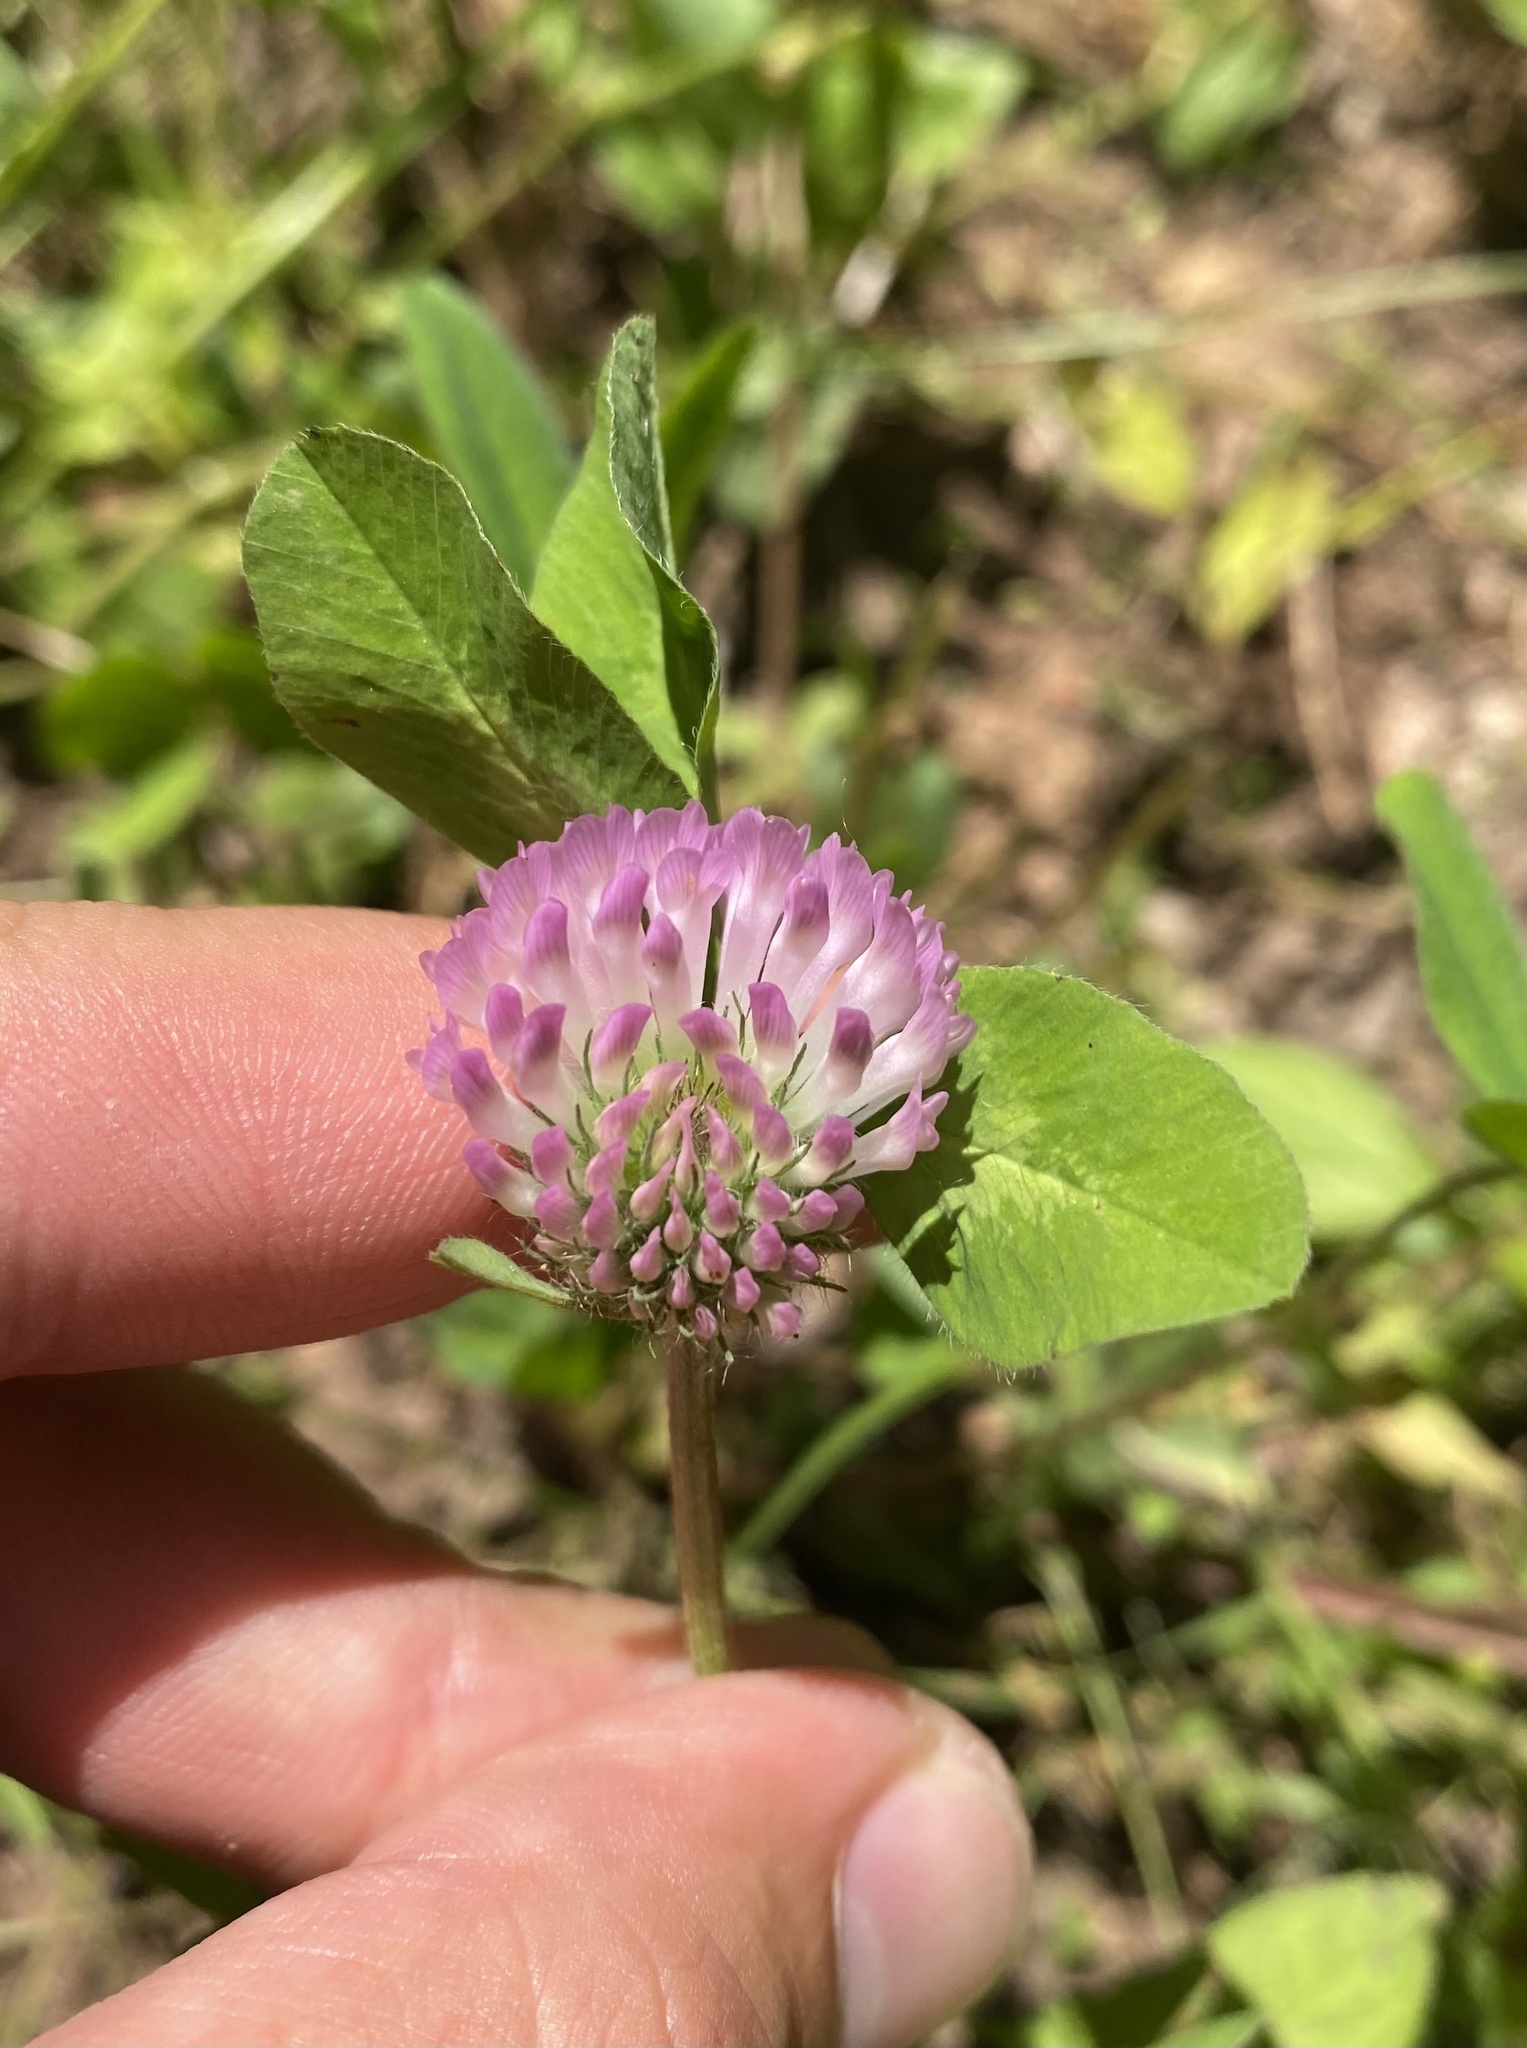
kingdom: Plantae
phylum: Tracheophyta
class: Magnoliopsida
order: Fabales
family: Fabaceae
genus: Trifolium
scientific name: Trifolium pratense
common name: Red clover
